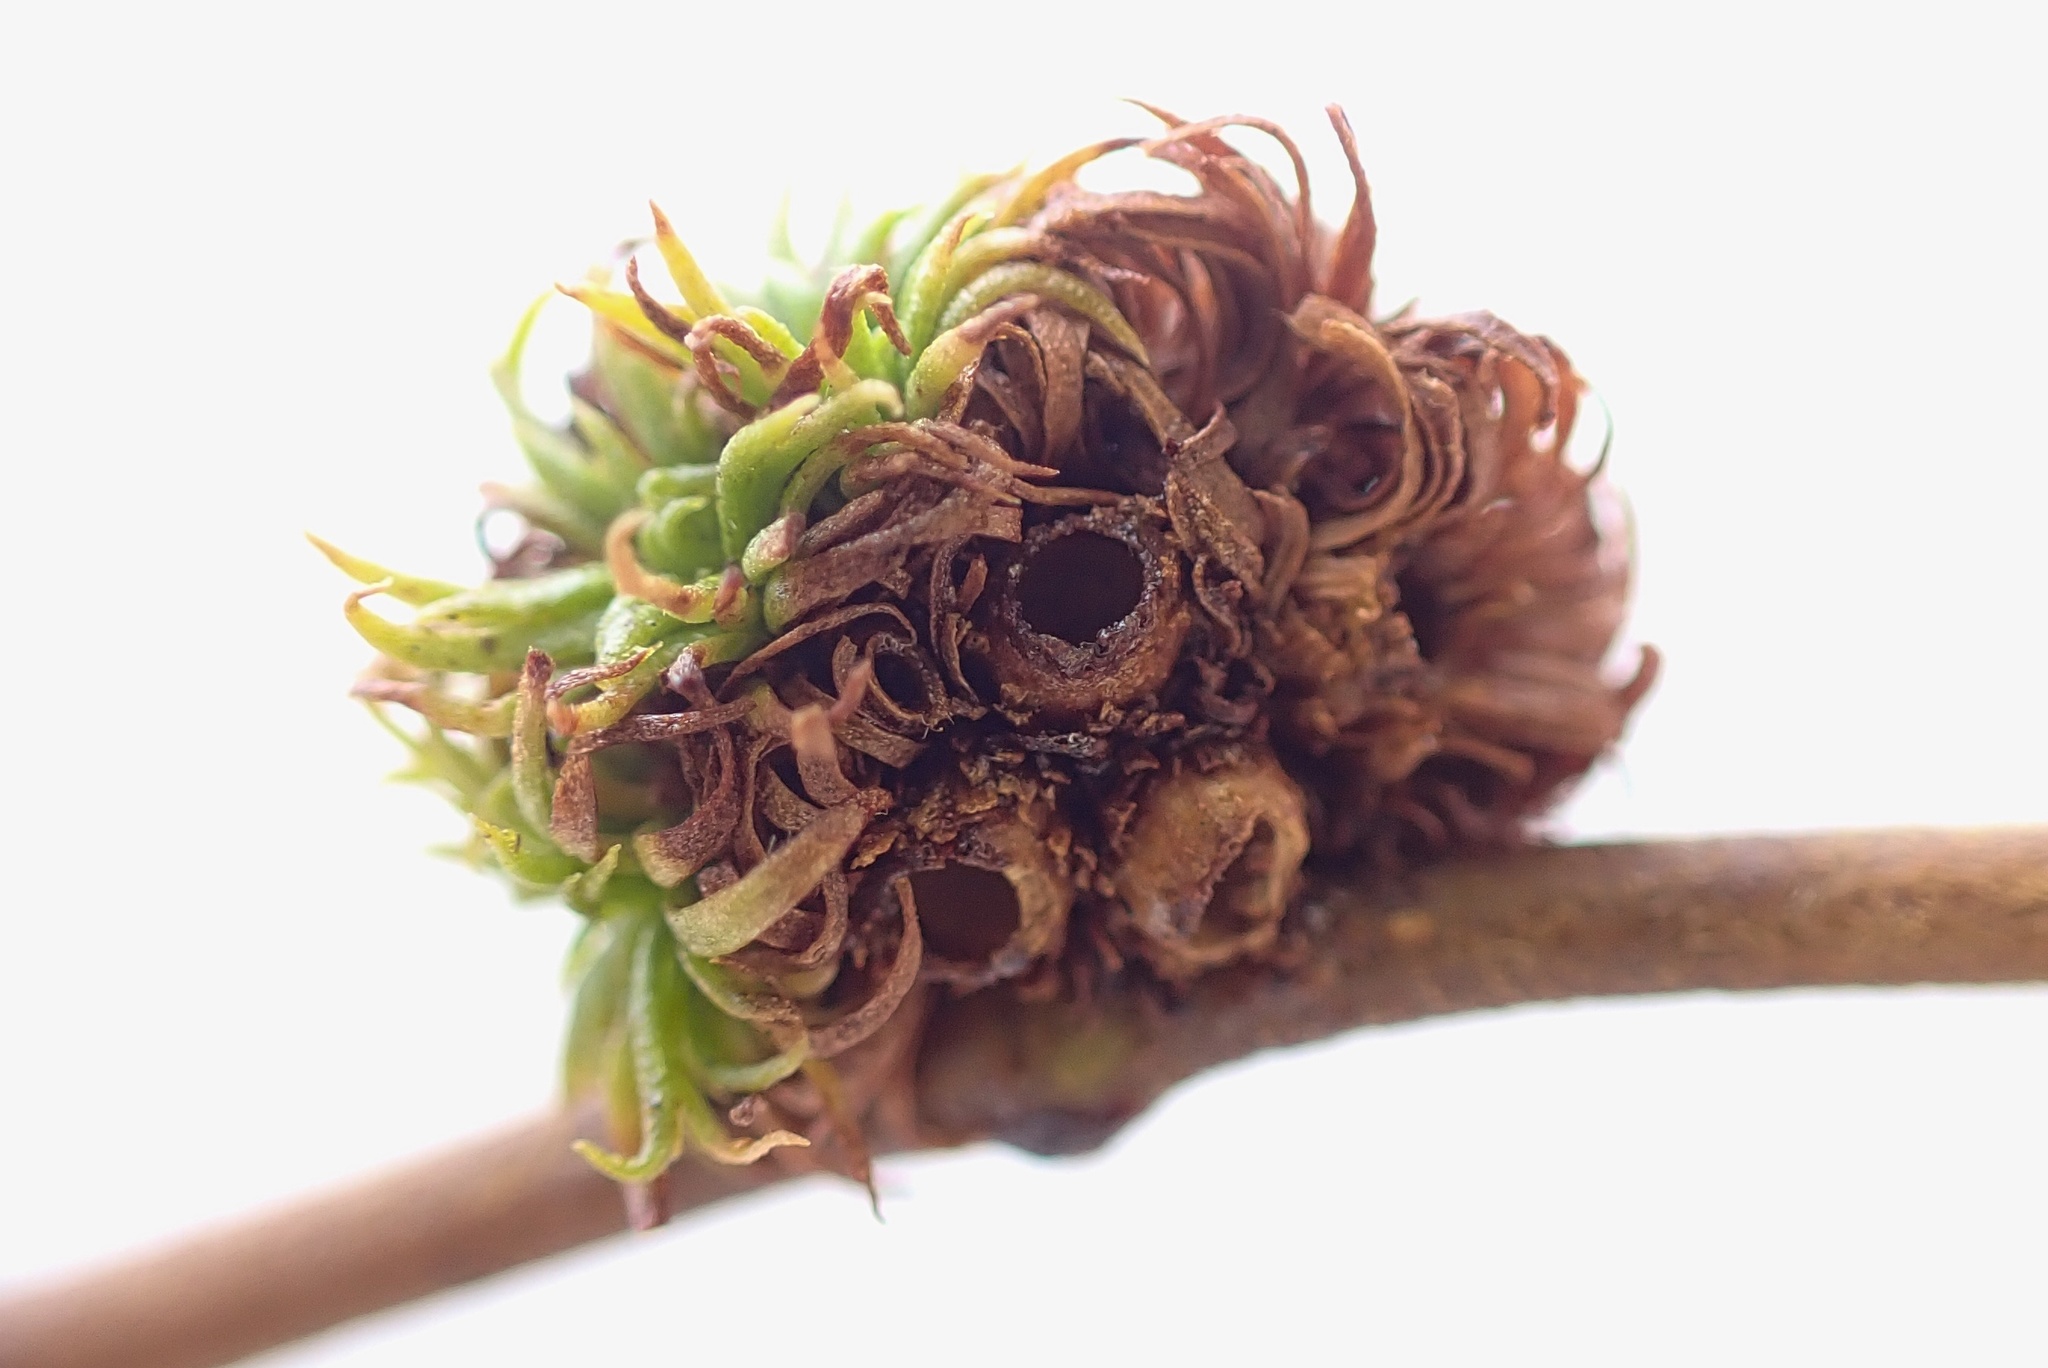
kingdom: Animalia
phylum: Arthropoda
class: Insecta
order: Diptera
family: Cecidomyiidae
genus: Asphondylia
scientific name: Asphondylia auripila
